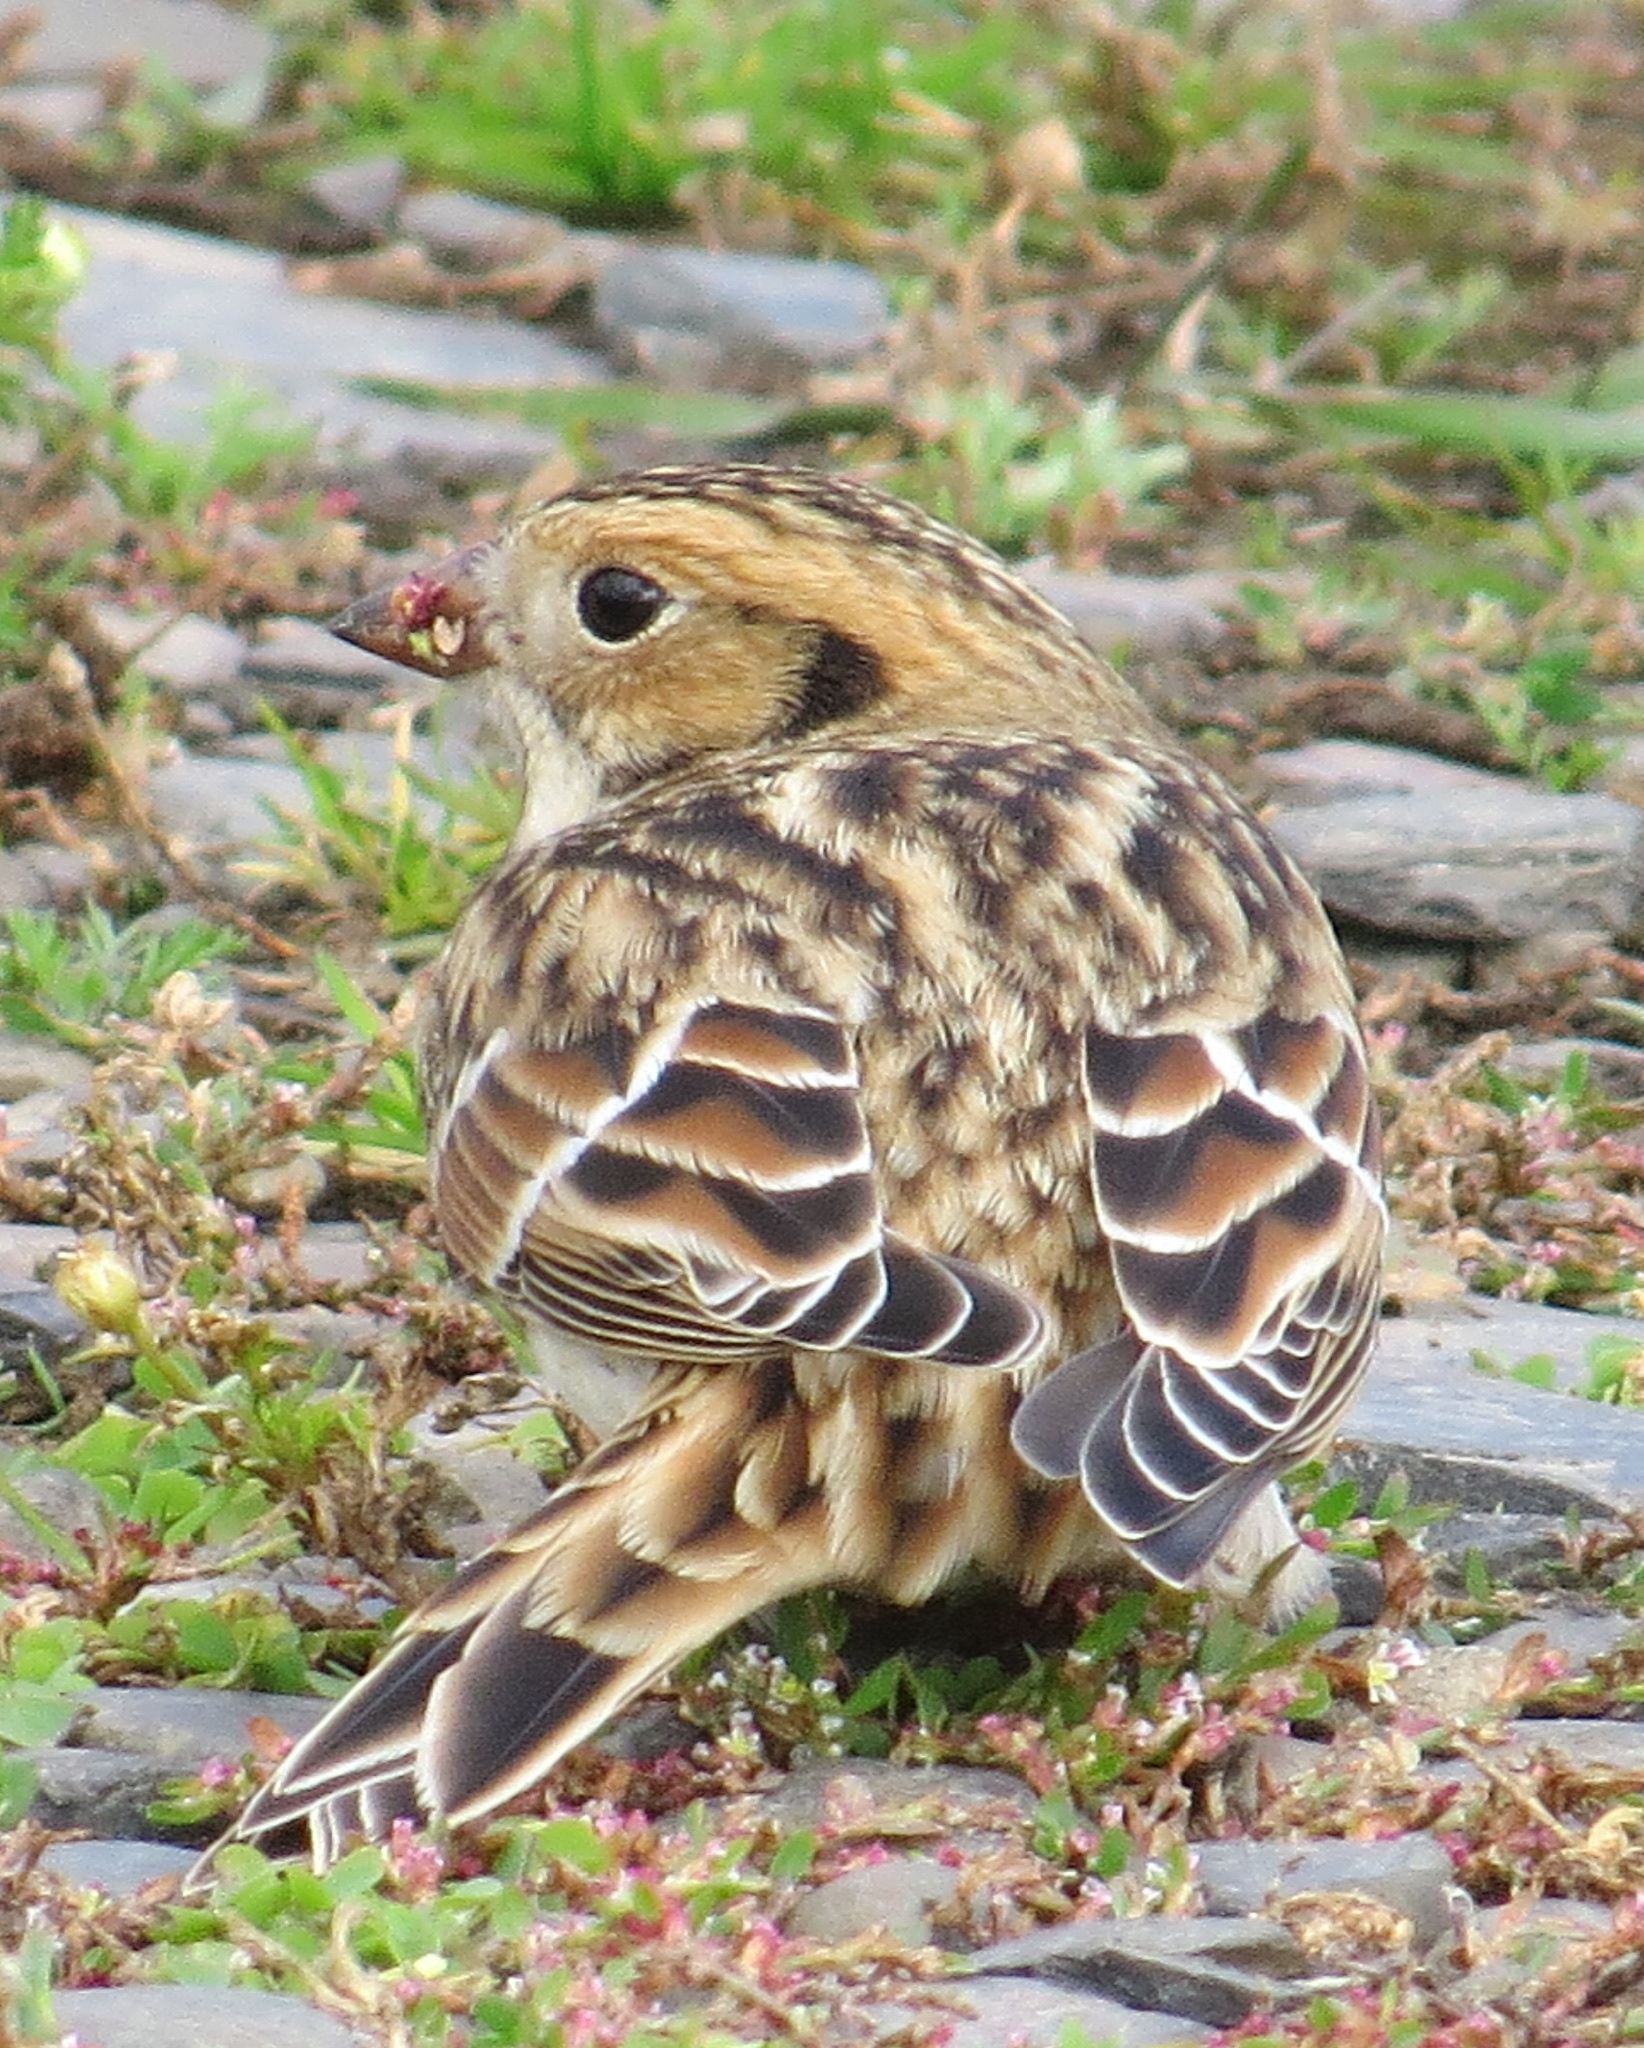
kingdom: Animalia
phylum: Chordata
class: Aves
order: Passeriformes
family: Calcariidae
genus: Calcarius
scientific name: Calcarius lapponicus
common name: Lapland longspur
